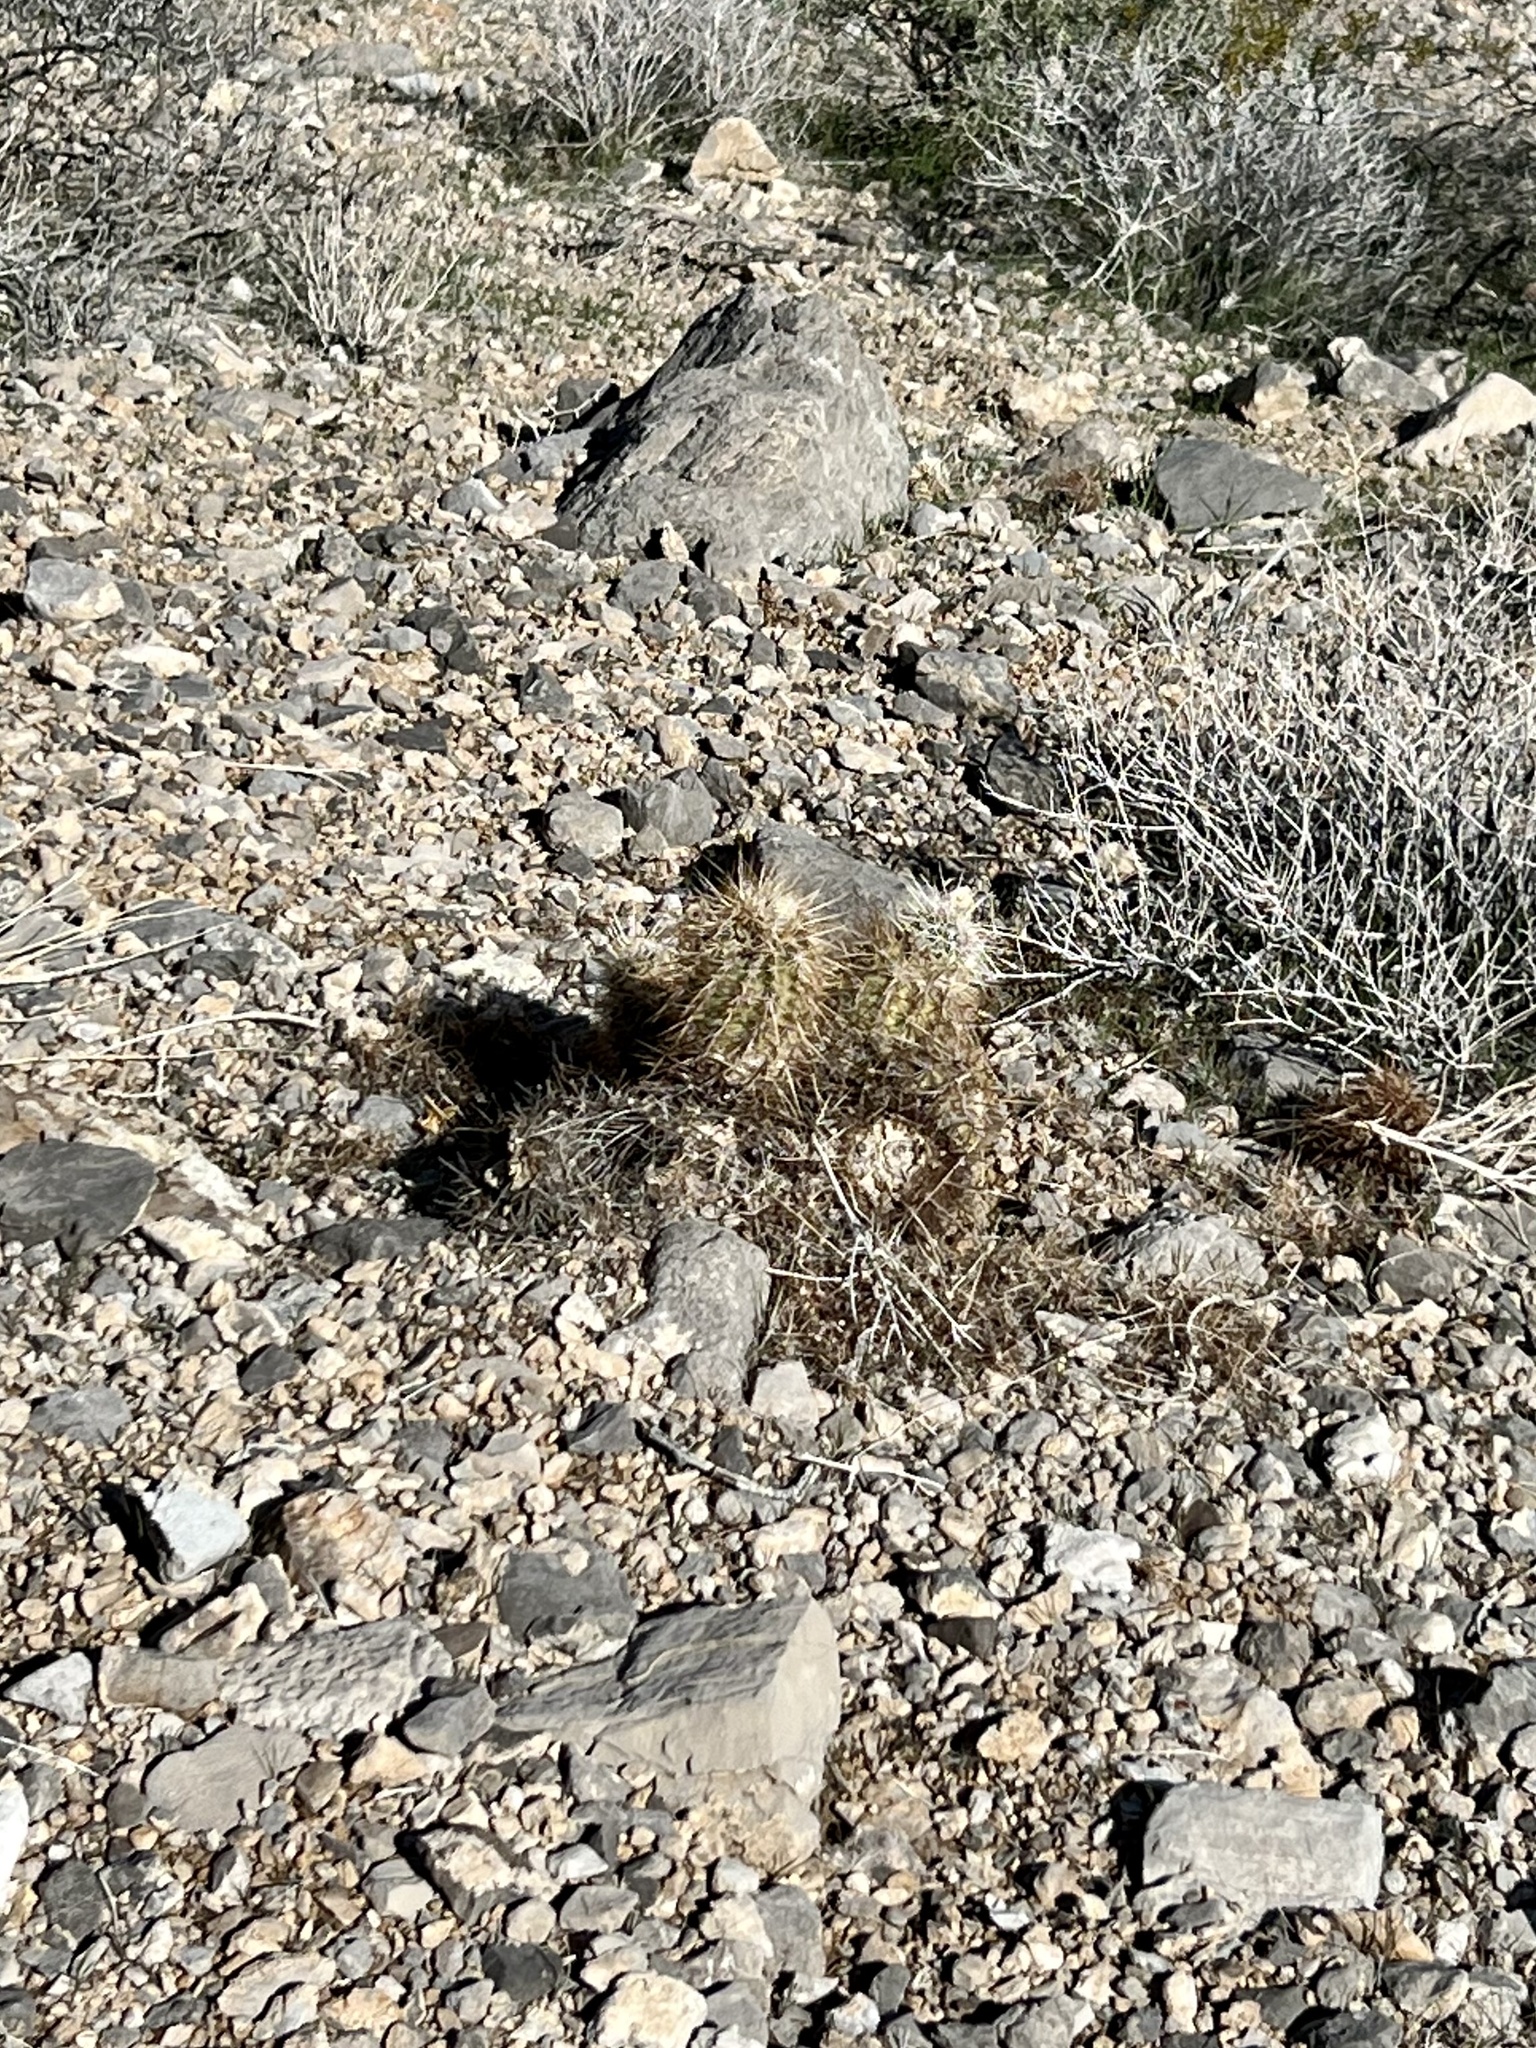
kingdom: Plantae
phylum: Tracheophyta
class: Magnoliopsida
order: Caryophyllales
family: Cactaceae
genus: Echinocereus
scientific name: Echinocereus engelmannii
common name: Engelmann's hedgehog cactus
